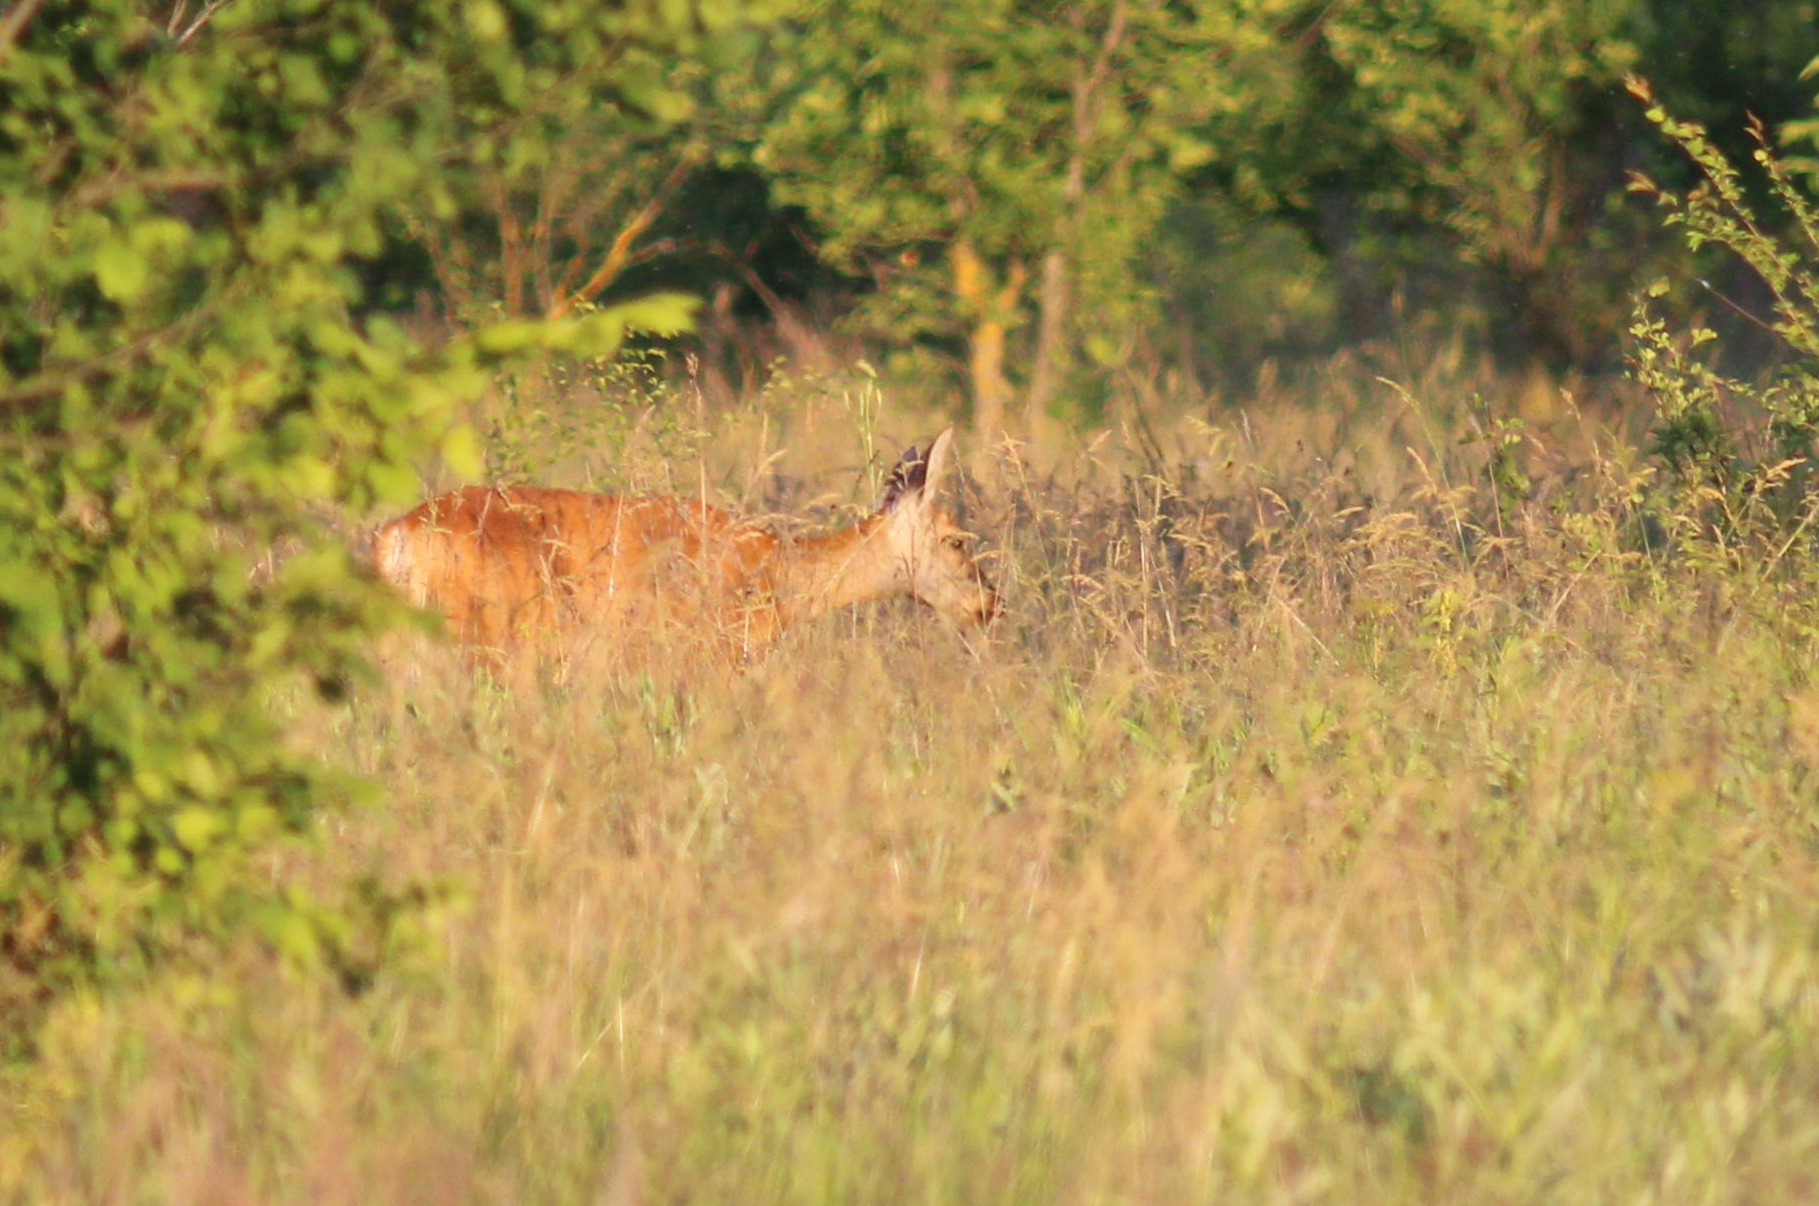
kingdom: Animalia
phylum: Chordata
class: Mammalia
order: Artiodactyla
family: Cervidae
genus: Capreolus
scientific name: Capreolus pygargus
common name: Siberian roe
